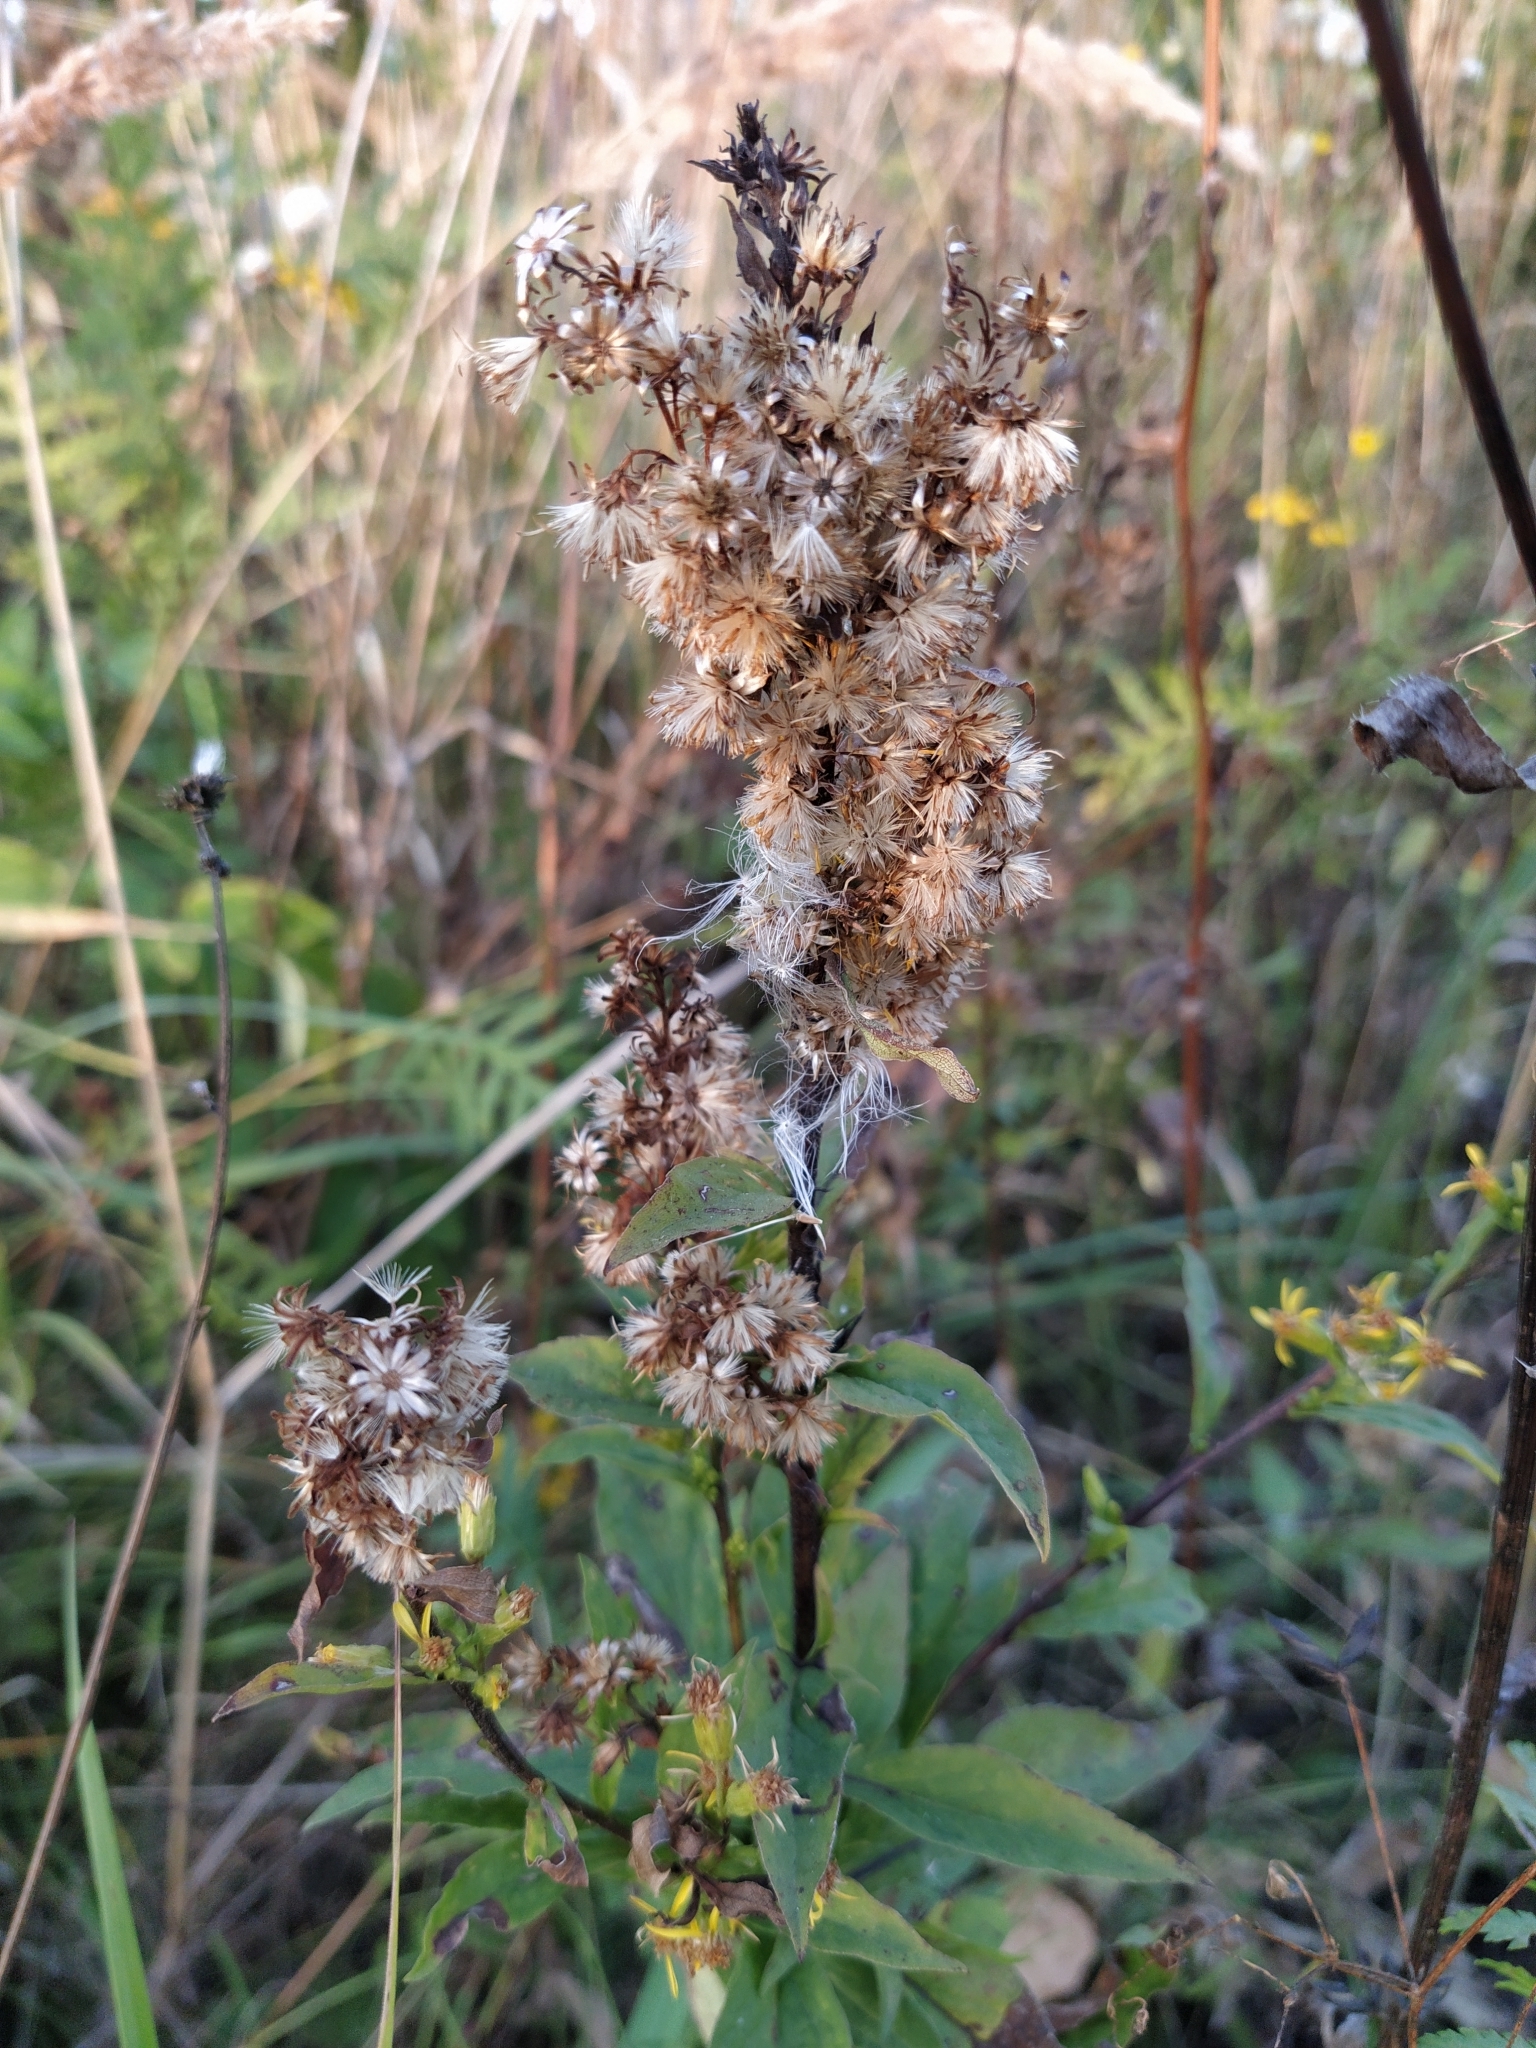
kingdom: Plantae
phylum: Tracheophyta
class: Magnoliopsida
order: Asterales
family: Asteraceae
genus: Solidago
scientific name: Solidago virgaurea
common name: Goldenrod
